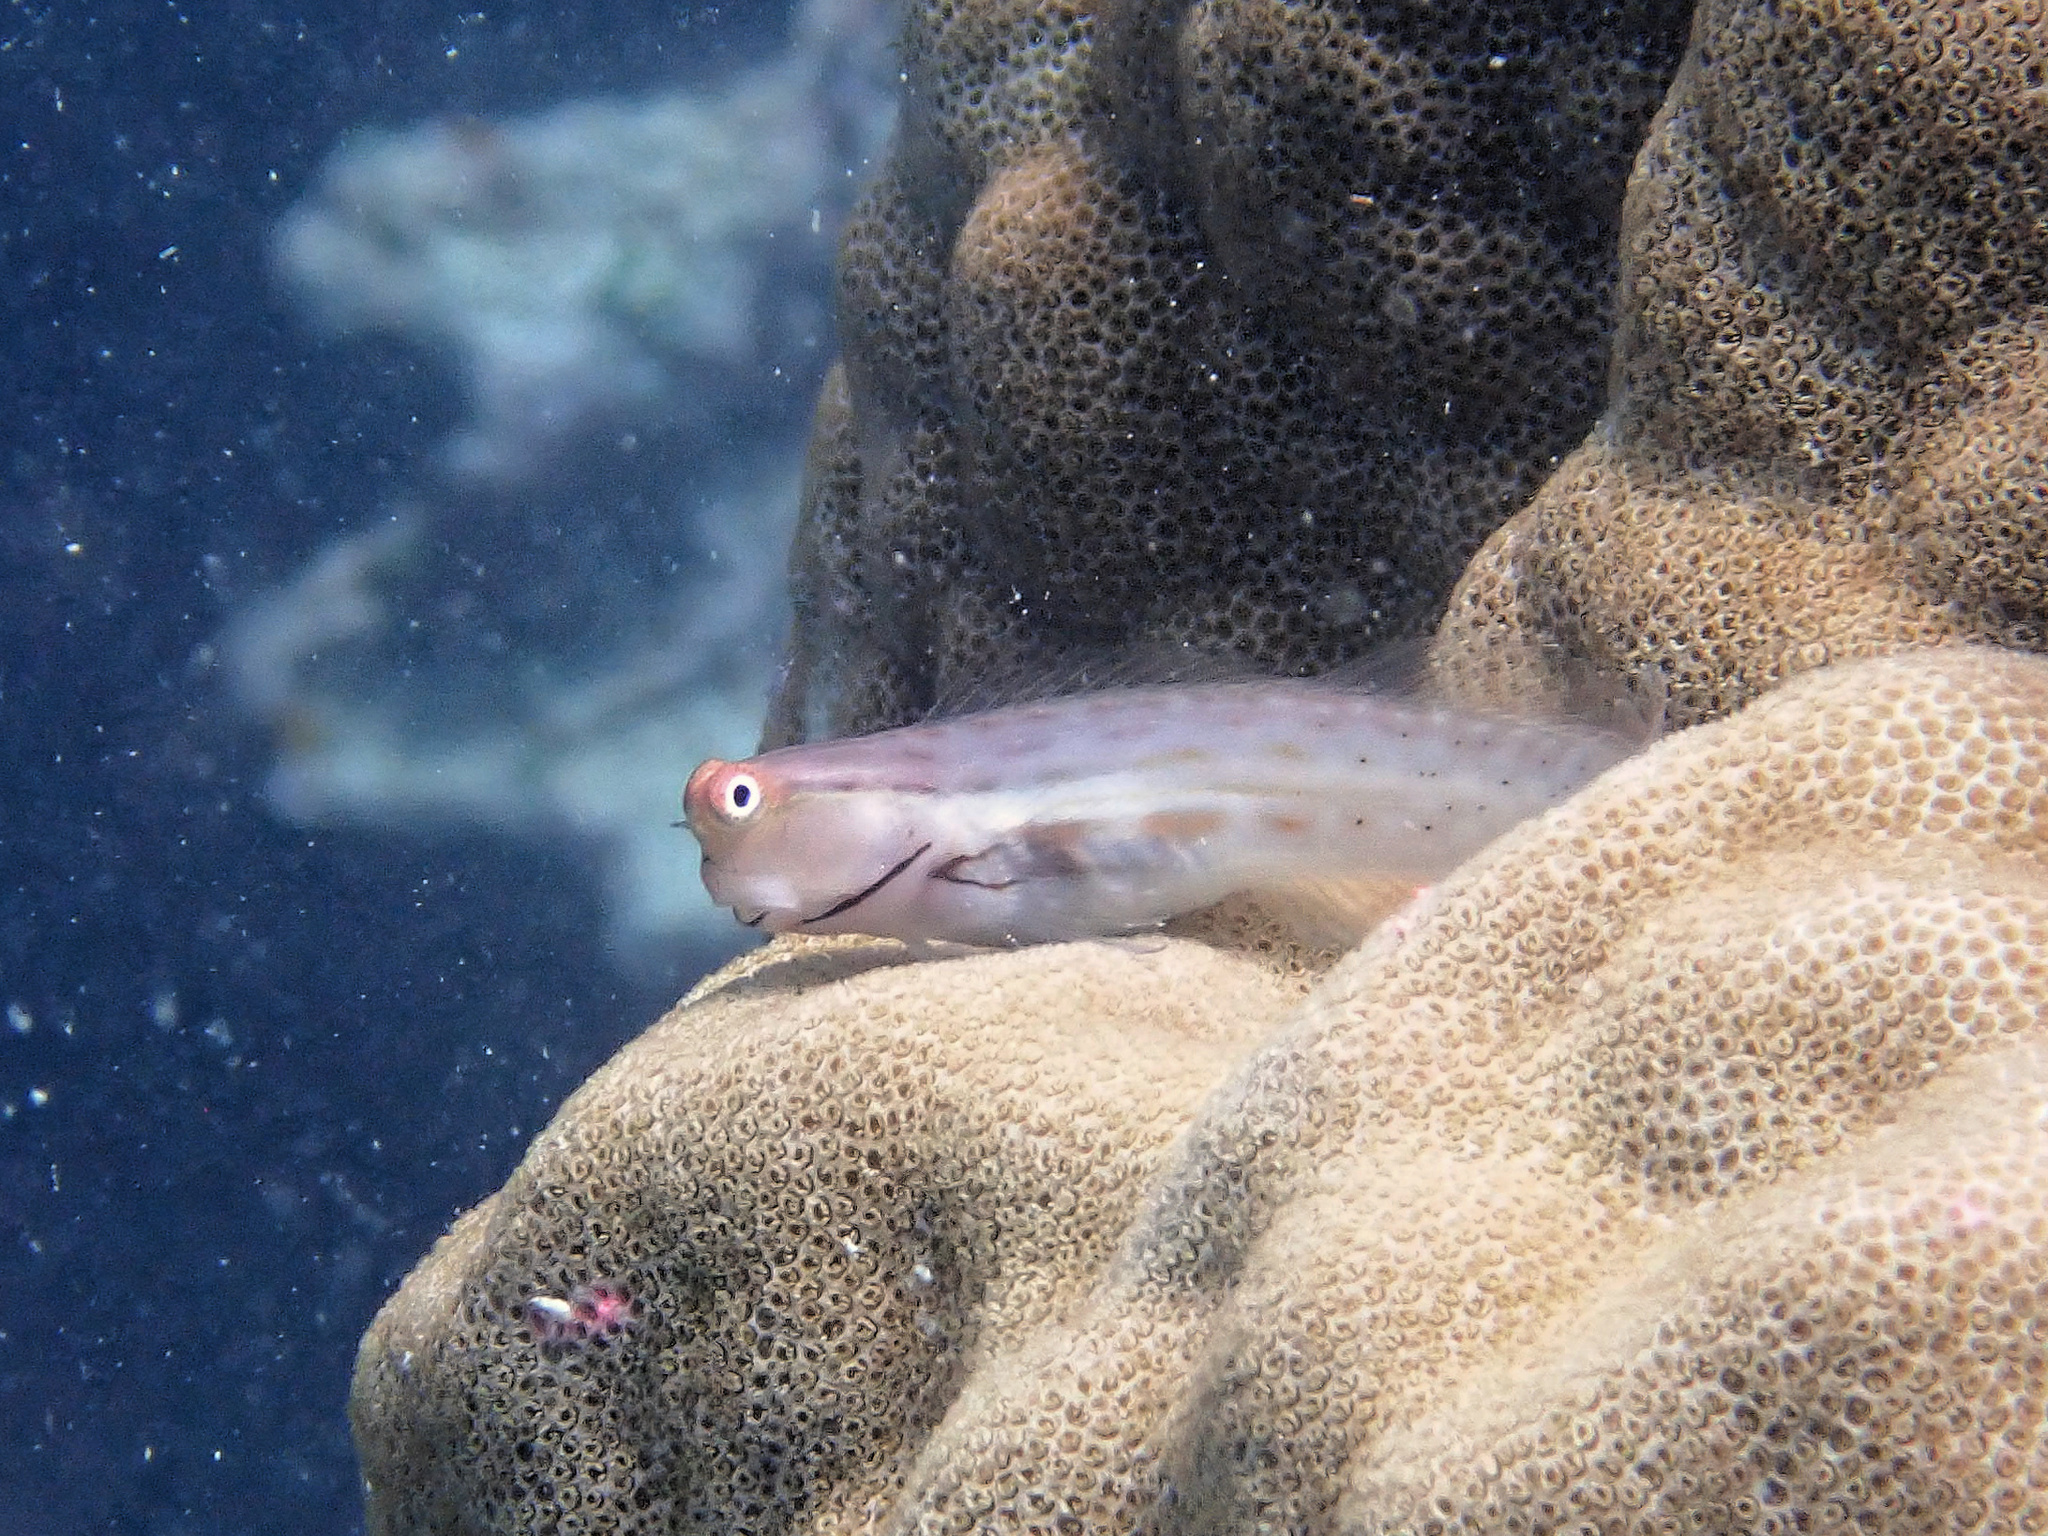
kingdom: Animalia
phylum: Chordata
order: Perciformes
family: Blenniidae
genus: Ecsenius
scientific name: Ecsenius stictus
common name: Great barrier reef blenny
